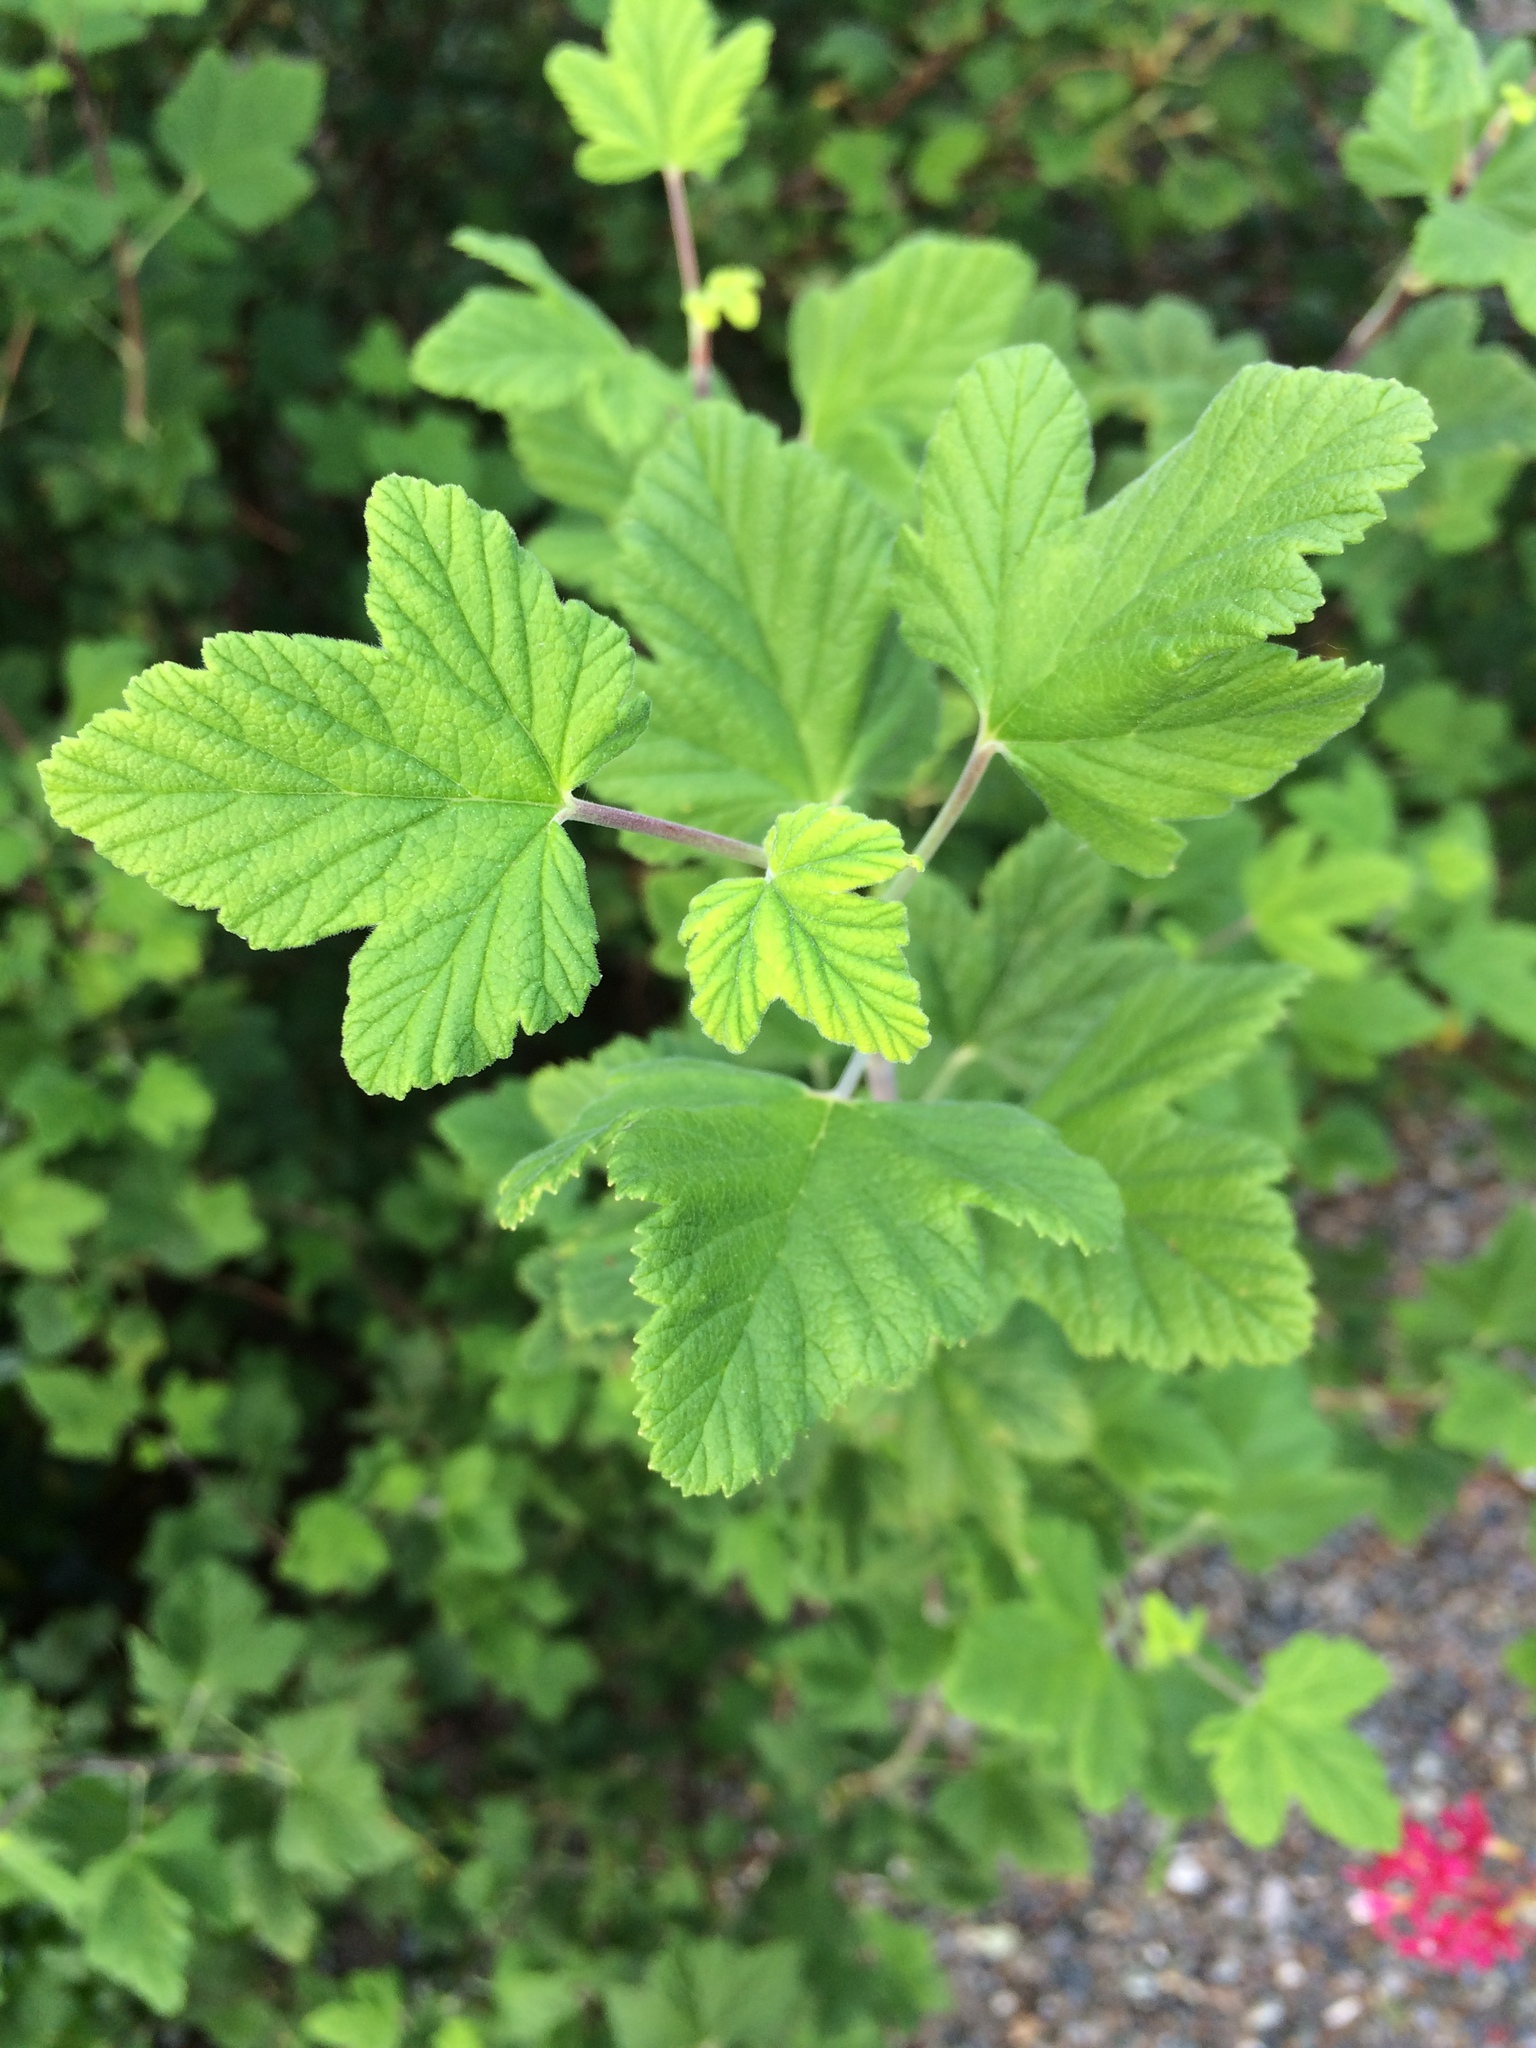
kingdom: Plantae
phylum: Tracheophyta
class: Magnoliopsida
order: Saxifragales
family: Grossulariaceae
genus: Ribes
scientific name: Ribes sanguineum
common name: Flowering currant
